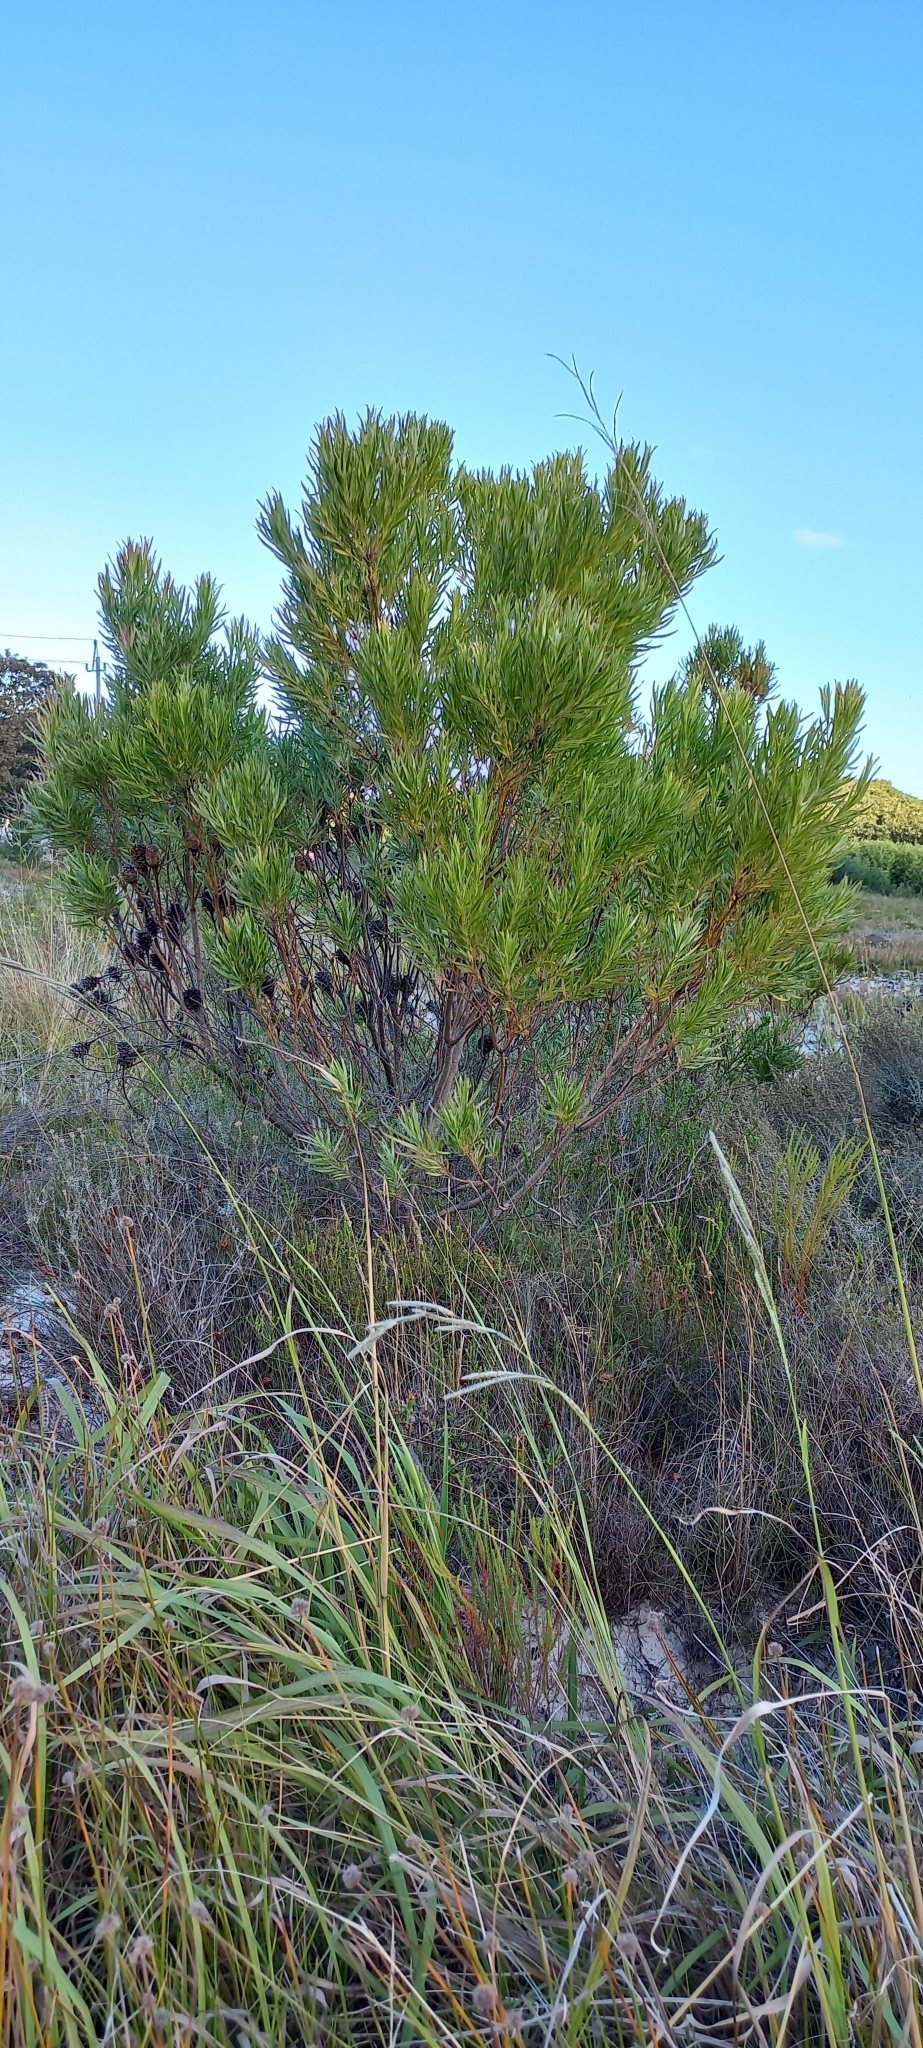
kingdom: Plantae
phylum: Tracheophyta
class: Magnoliopsida
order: Proteales
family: Proteaceae
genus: Leucadendron
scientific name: Leucadendron xanthoconus
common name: Sickle-leaf conebush
